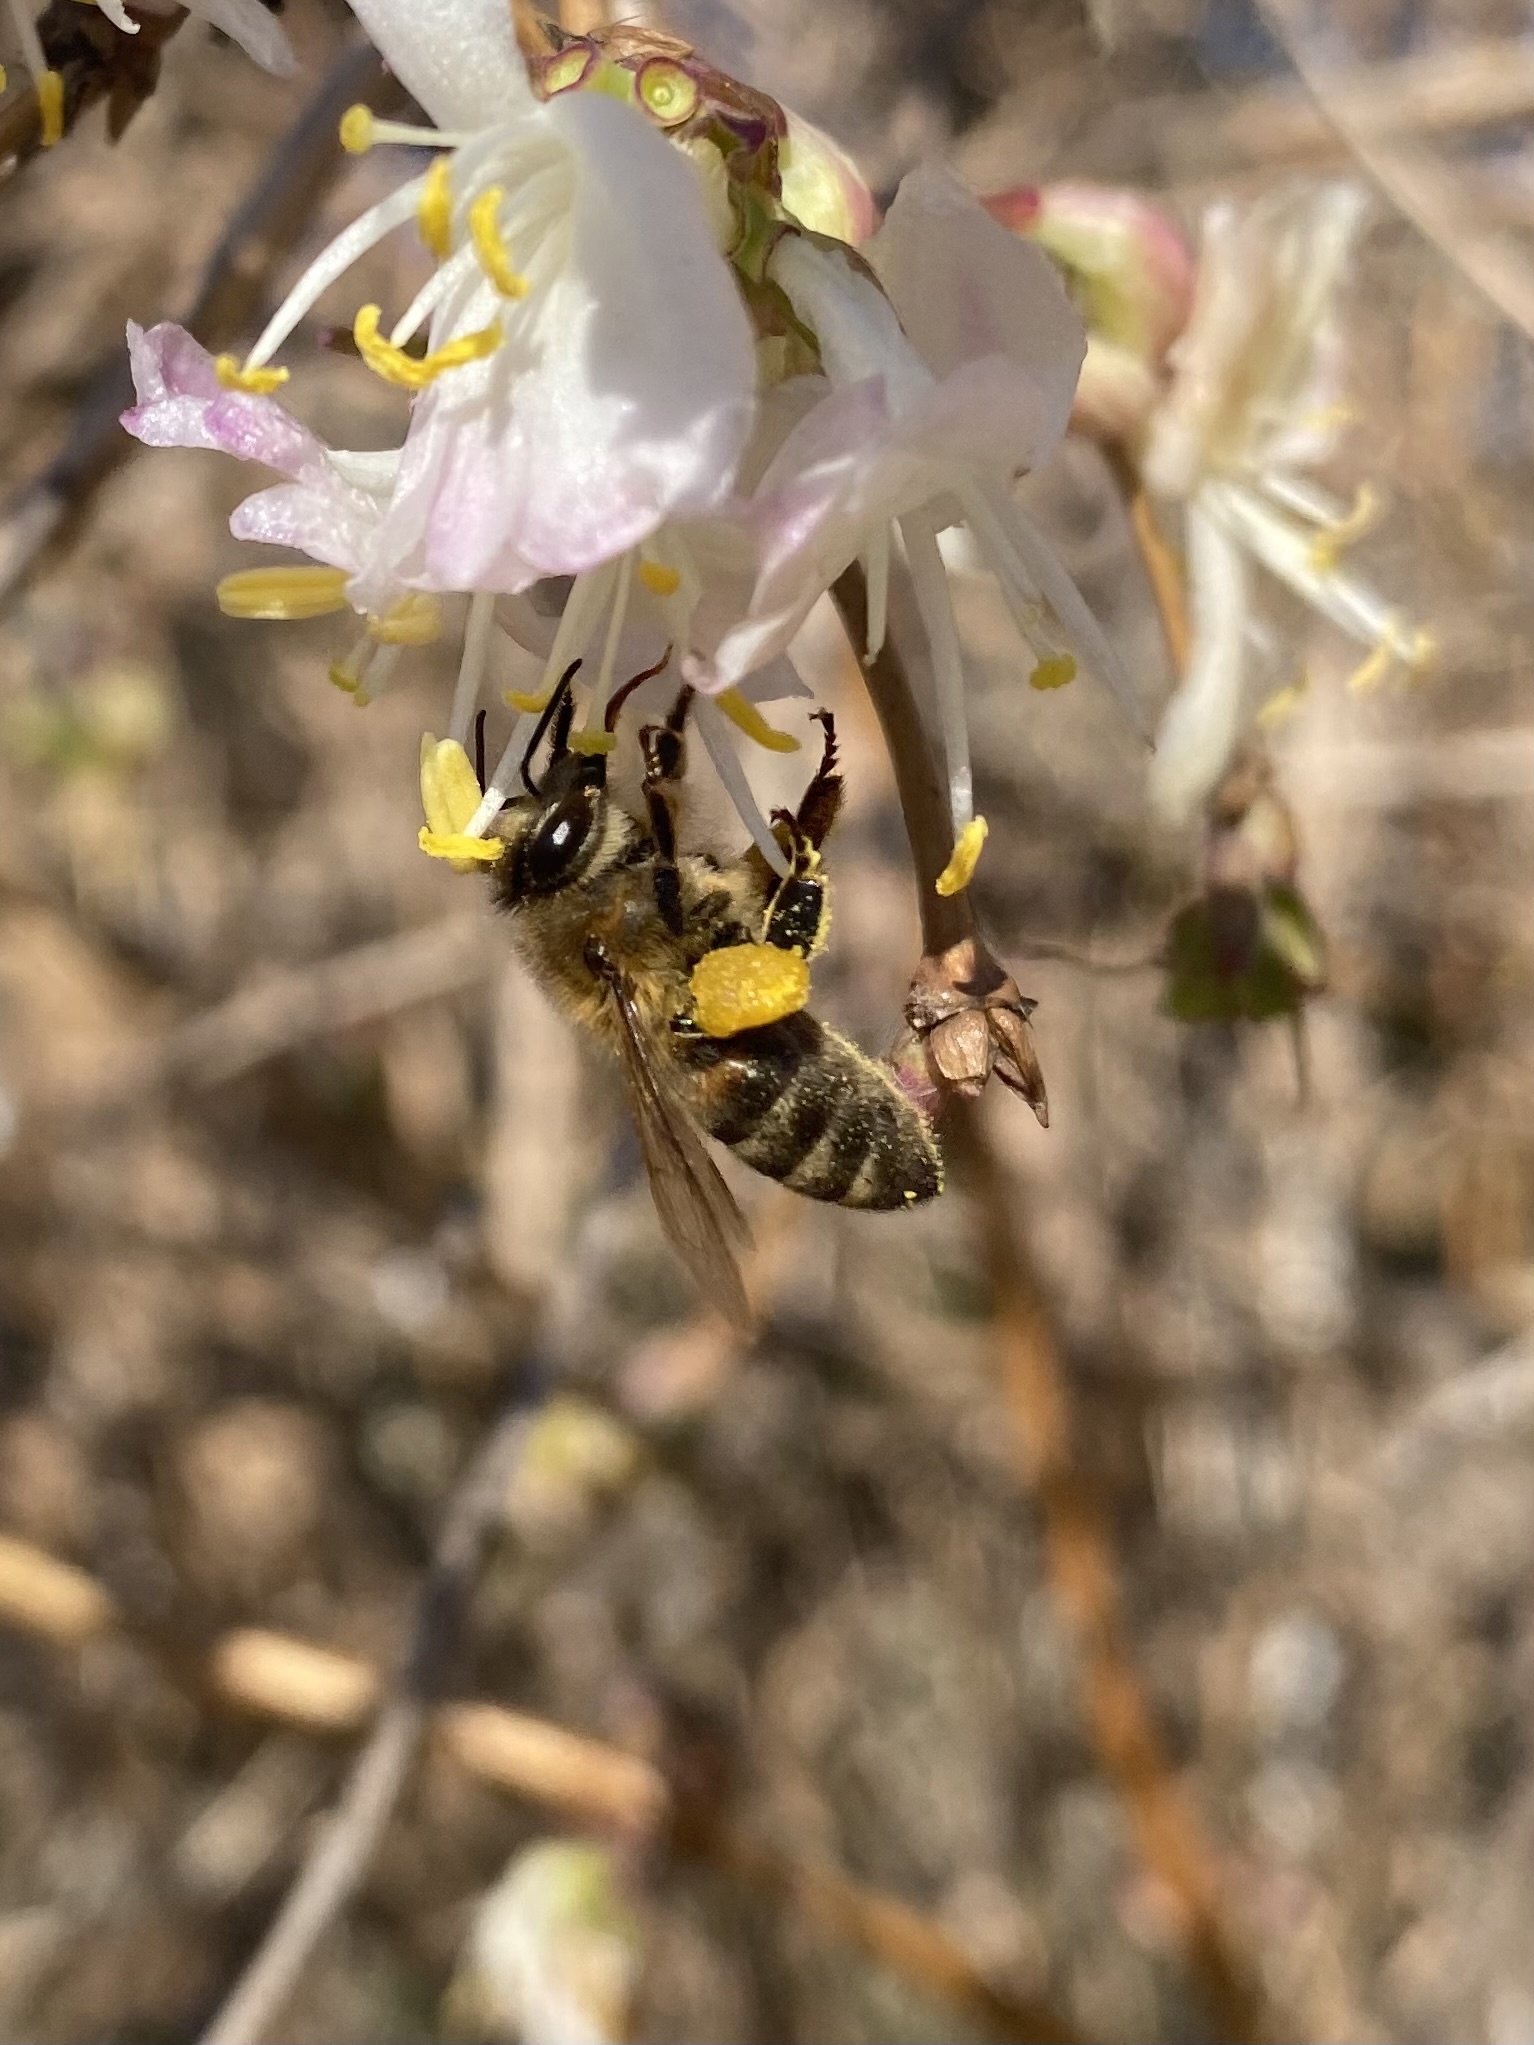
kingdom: Animalia
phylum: Arthropoda
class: Insecta
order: Hymenoptera
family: Apidae
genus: Apis
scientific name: Apis mellifera
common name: Honey bee
